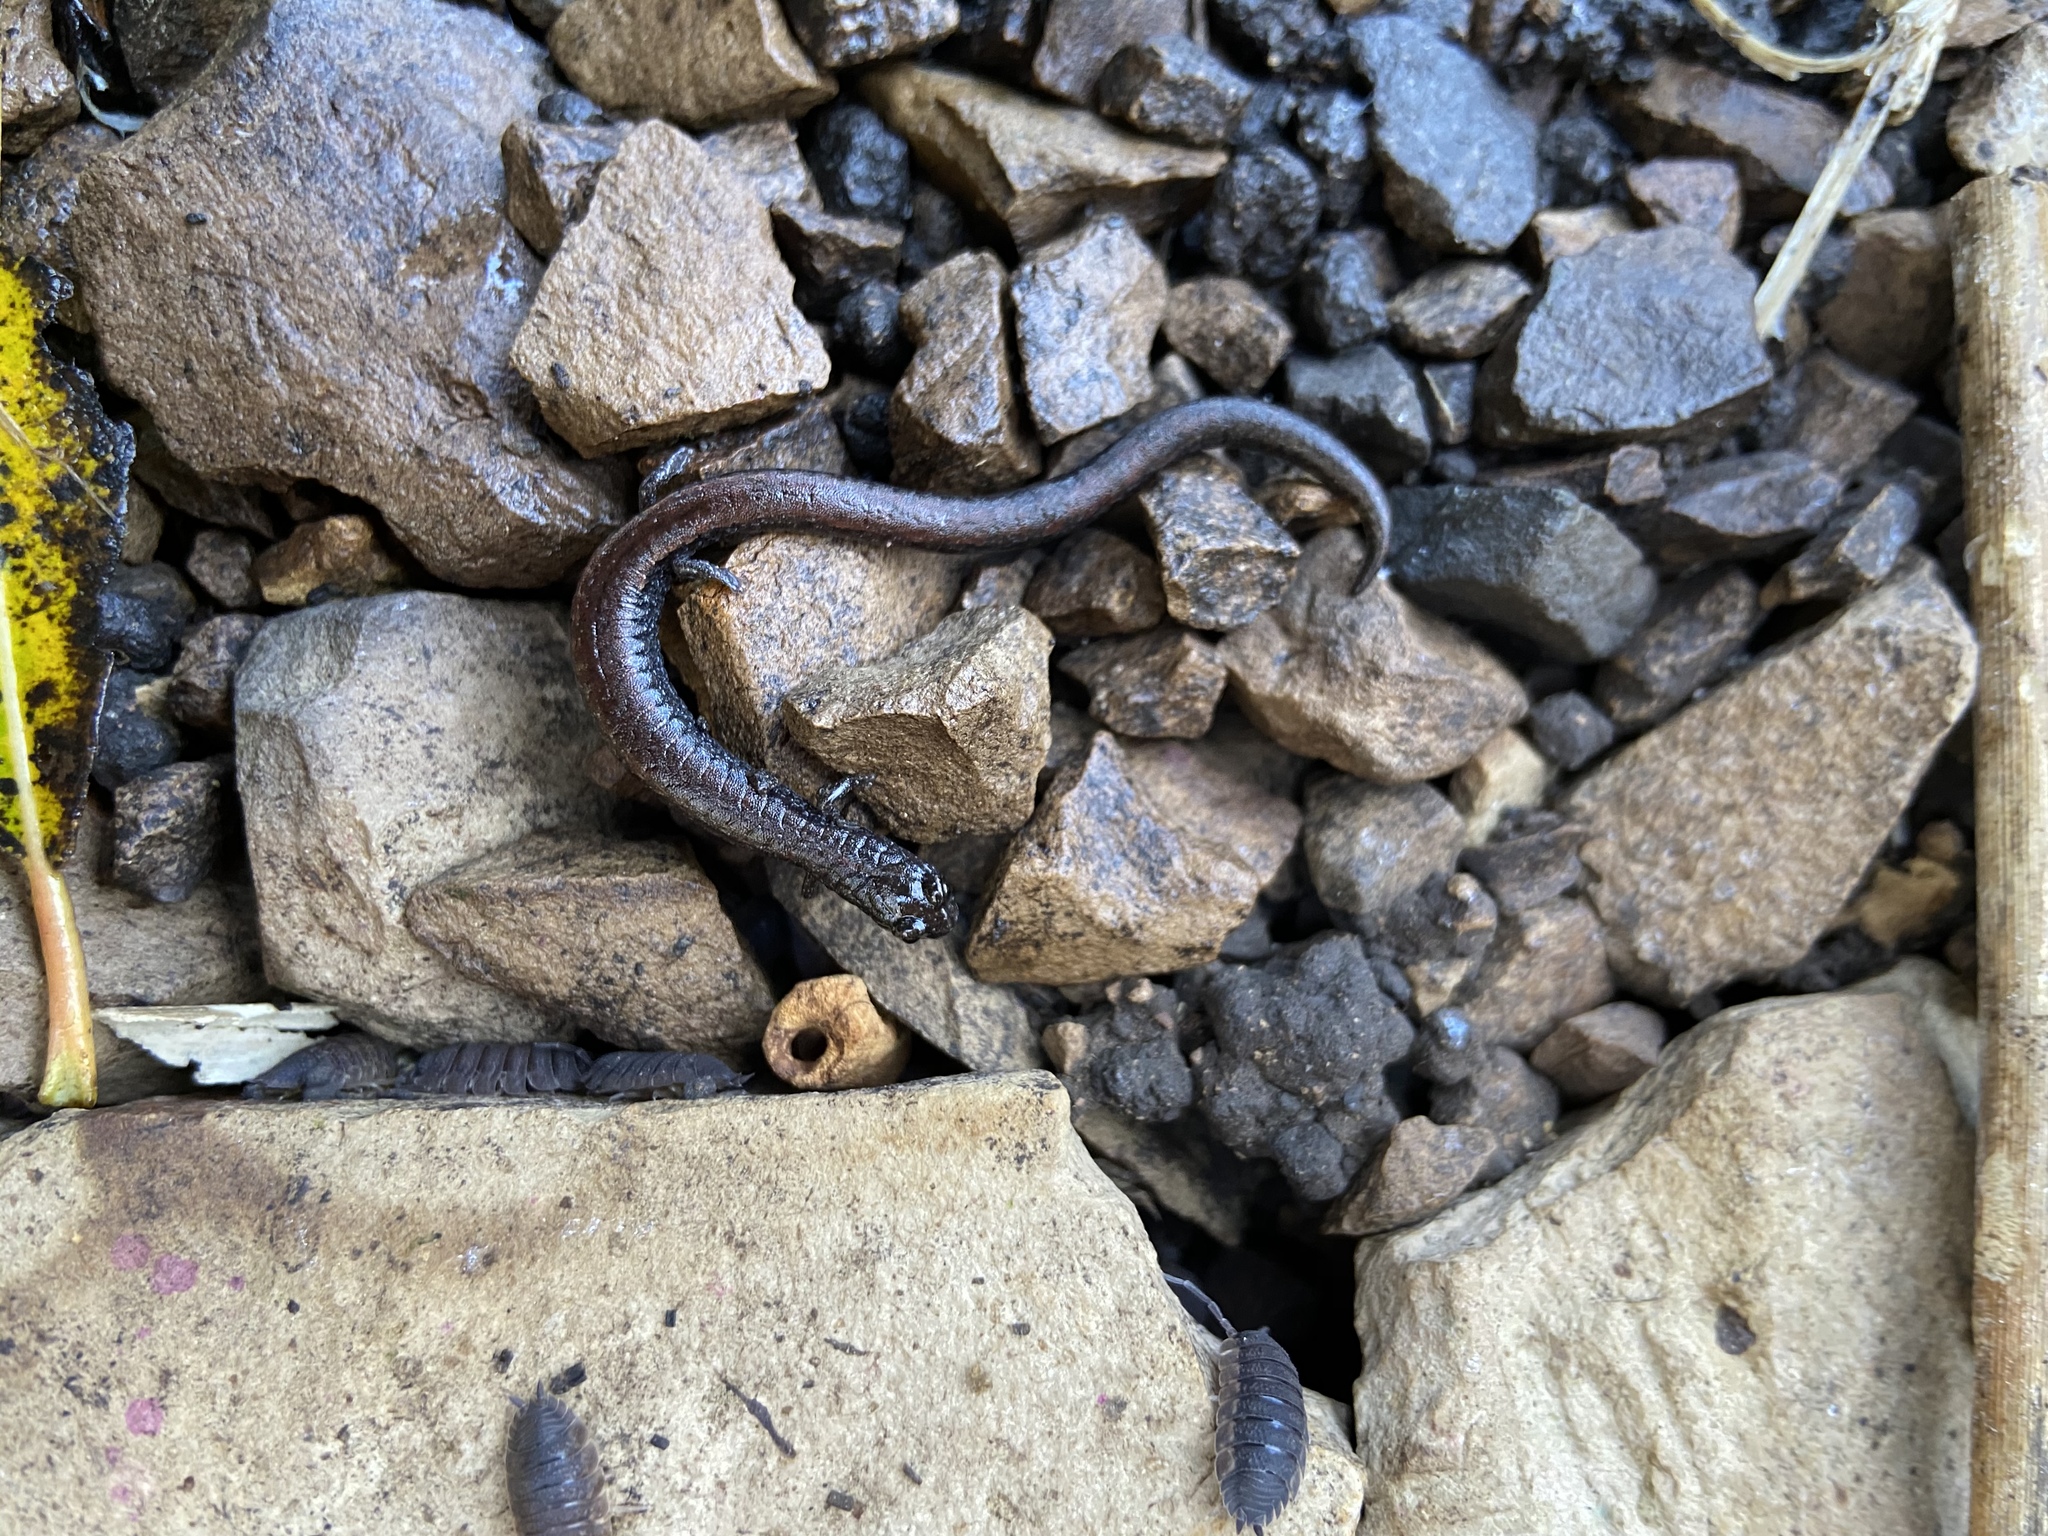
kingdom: Animalia
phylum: Chordata
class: Amphibia
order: Caudata
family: Plethodontidae
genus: Batrachoseps
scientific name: Batrachoseps attenuatus
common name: California slender salamander
